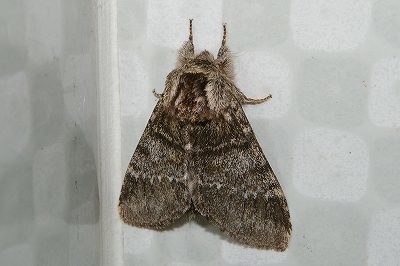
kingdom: Animalia
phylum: Arthropoda
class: Insecta
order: Lepidoptera
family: Notodontidae
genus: Drymonia
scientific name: Drymonia basalis
